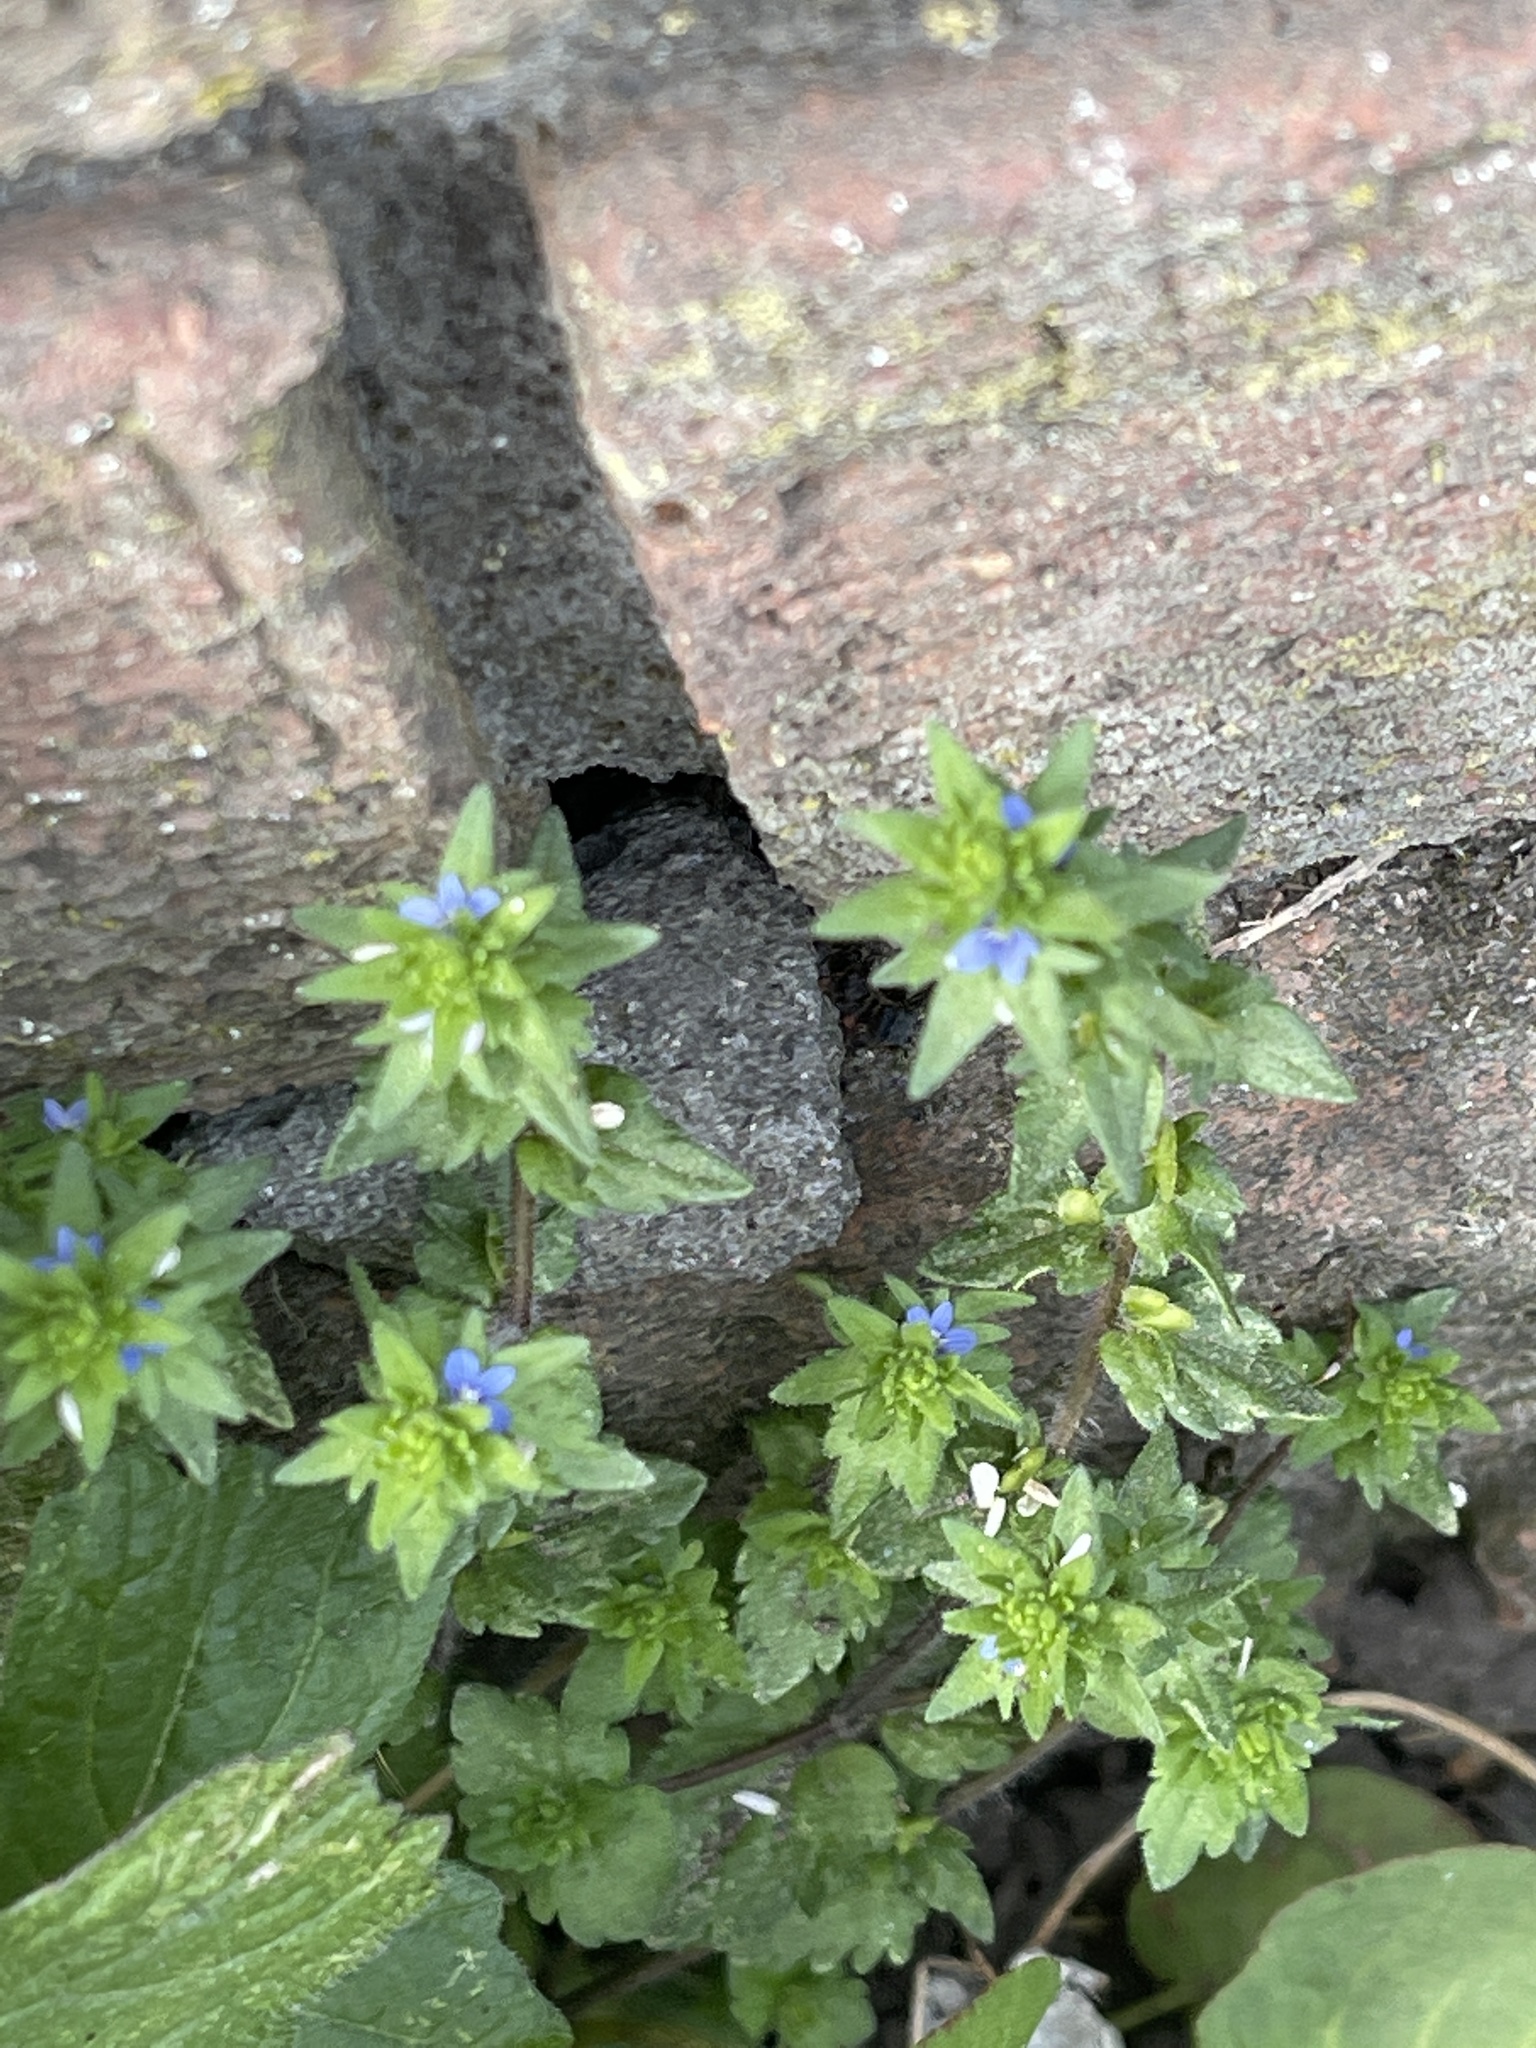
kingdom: Plantae
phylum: Tracheophyta
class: Magnoliopsida
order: Lamiales
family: Plantaginaceae
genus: Veronica
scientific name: Veronica arvensis
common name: Corn speedwell
